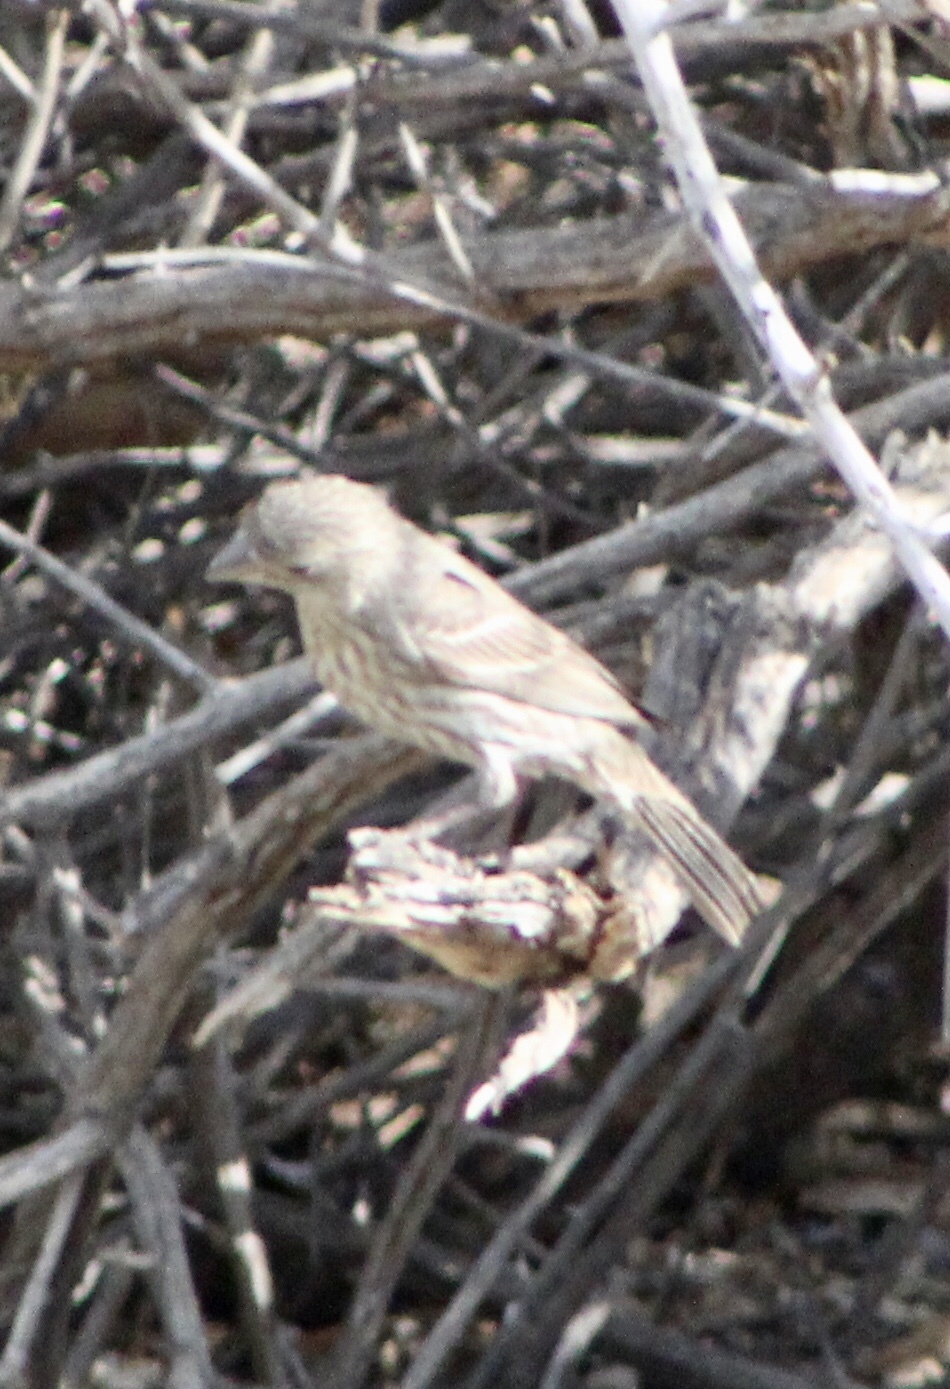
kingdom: Animalia
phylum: Chordata
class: Aves
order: Passeriformes
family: Fringillidae
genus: Haemorhous
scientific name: Haemorhous mexicanus
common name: House finch
